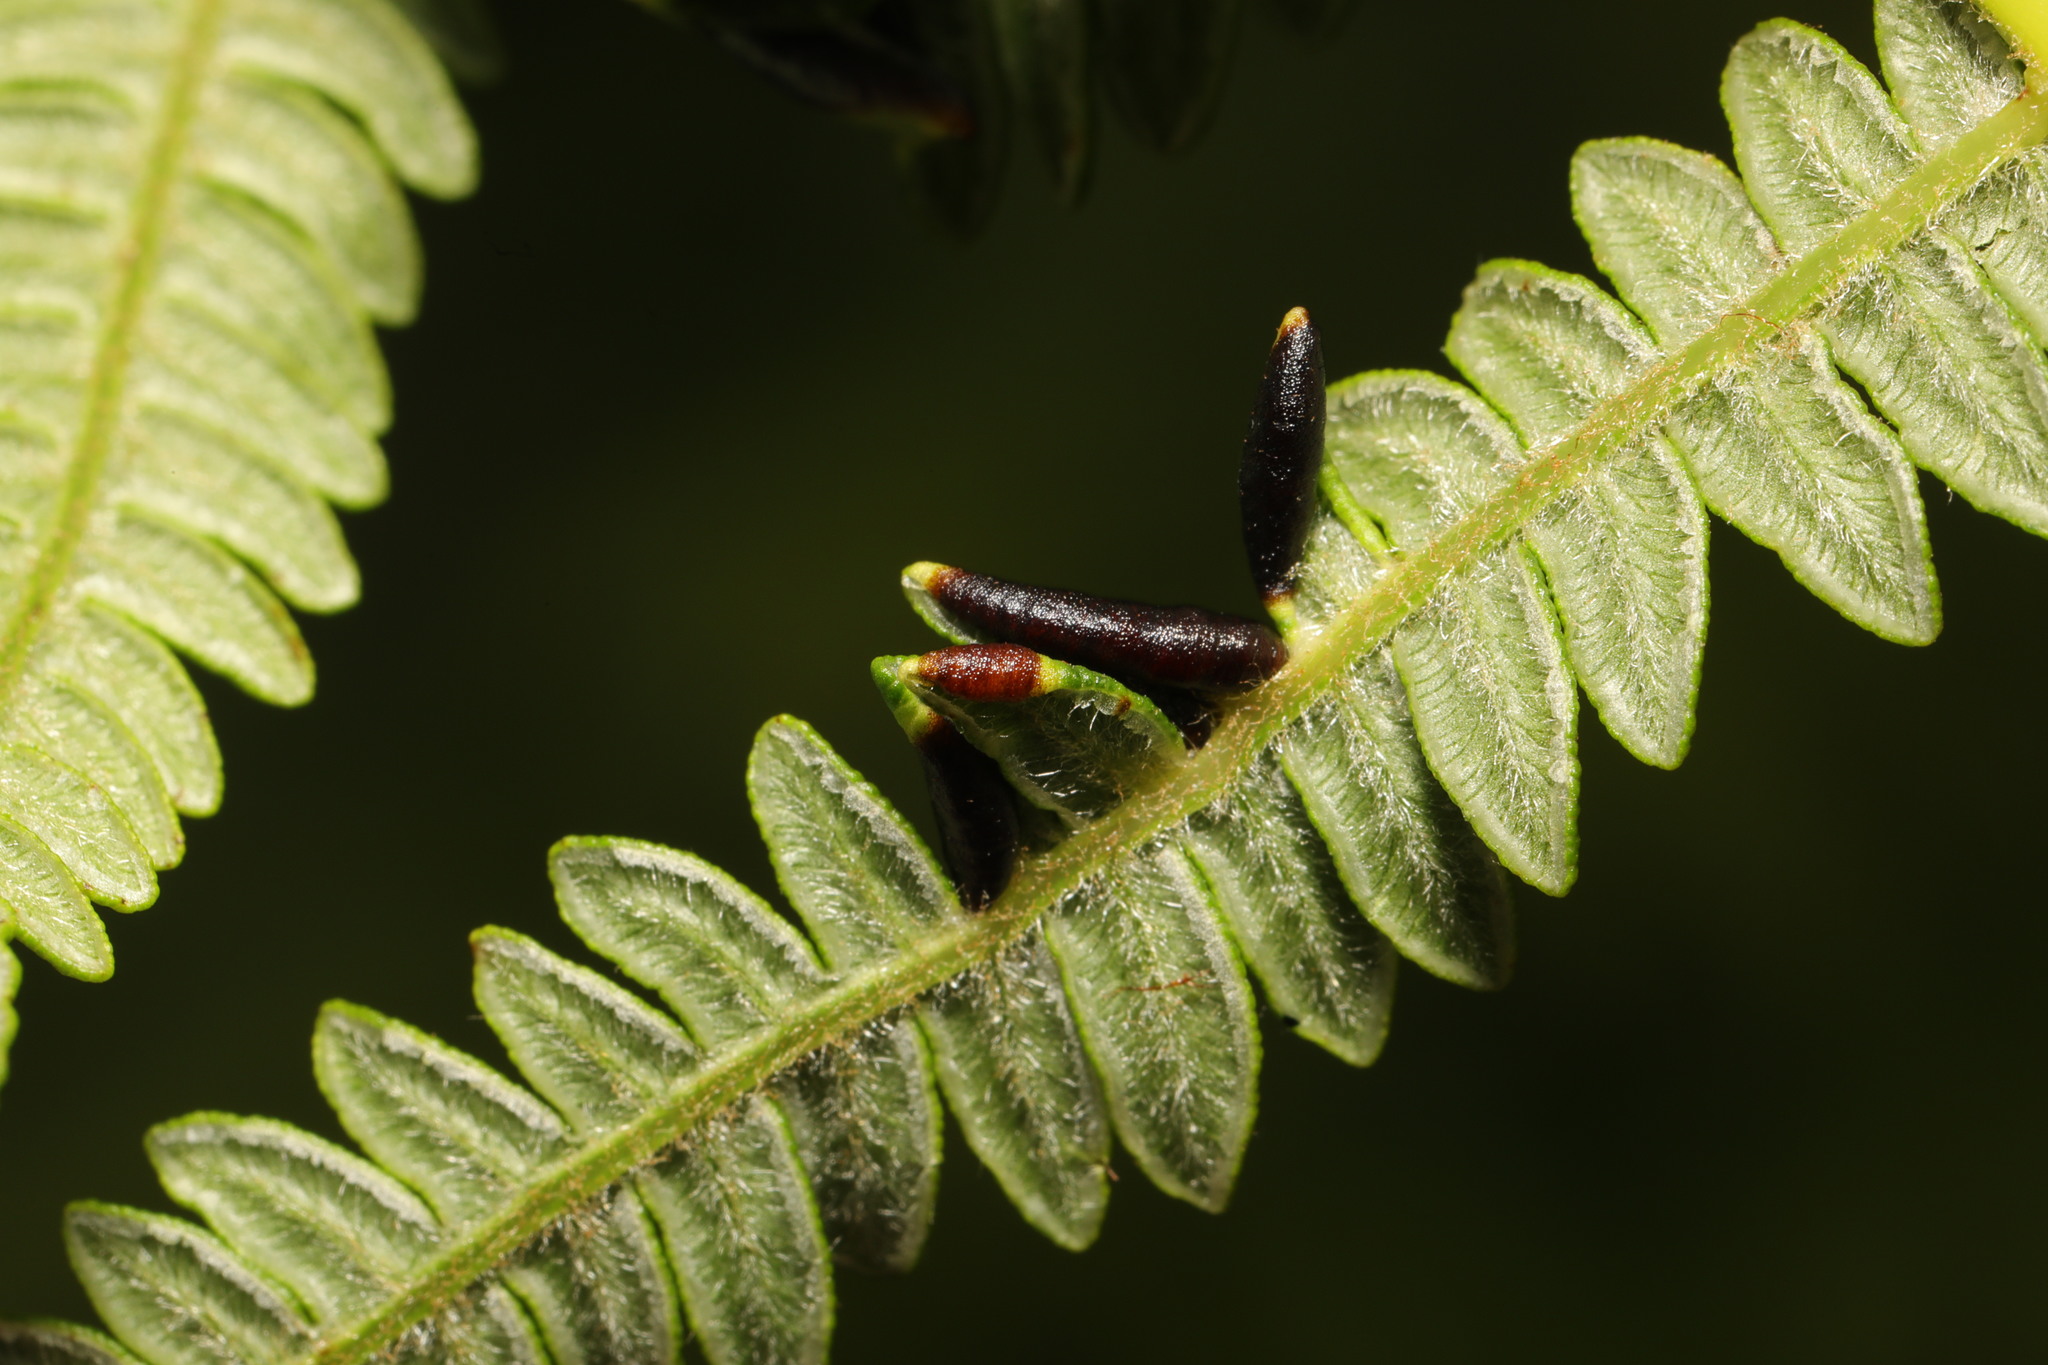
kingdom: Animalia
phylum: Arthropoda
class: Insecta
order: Diptera
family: Cecidomyiidae
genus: Dasineura
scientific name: Dasineura pteridis
